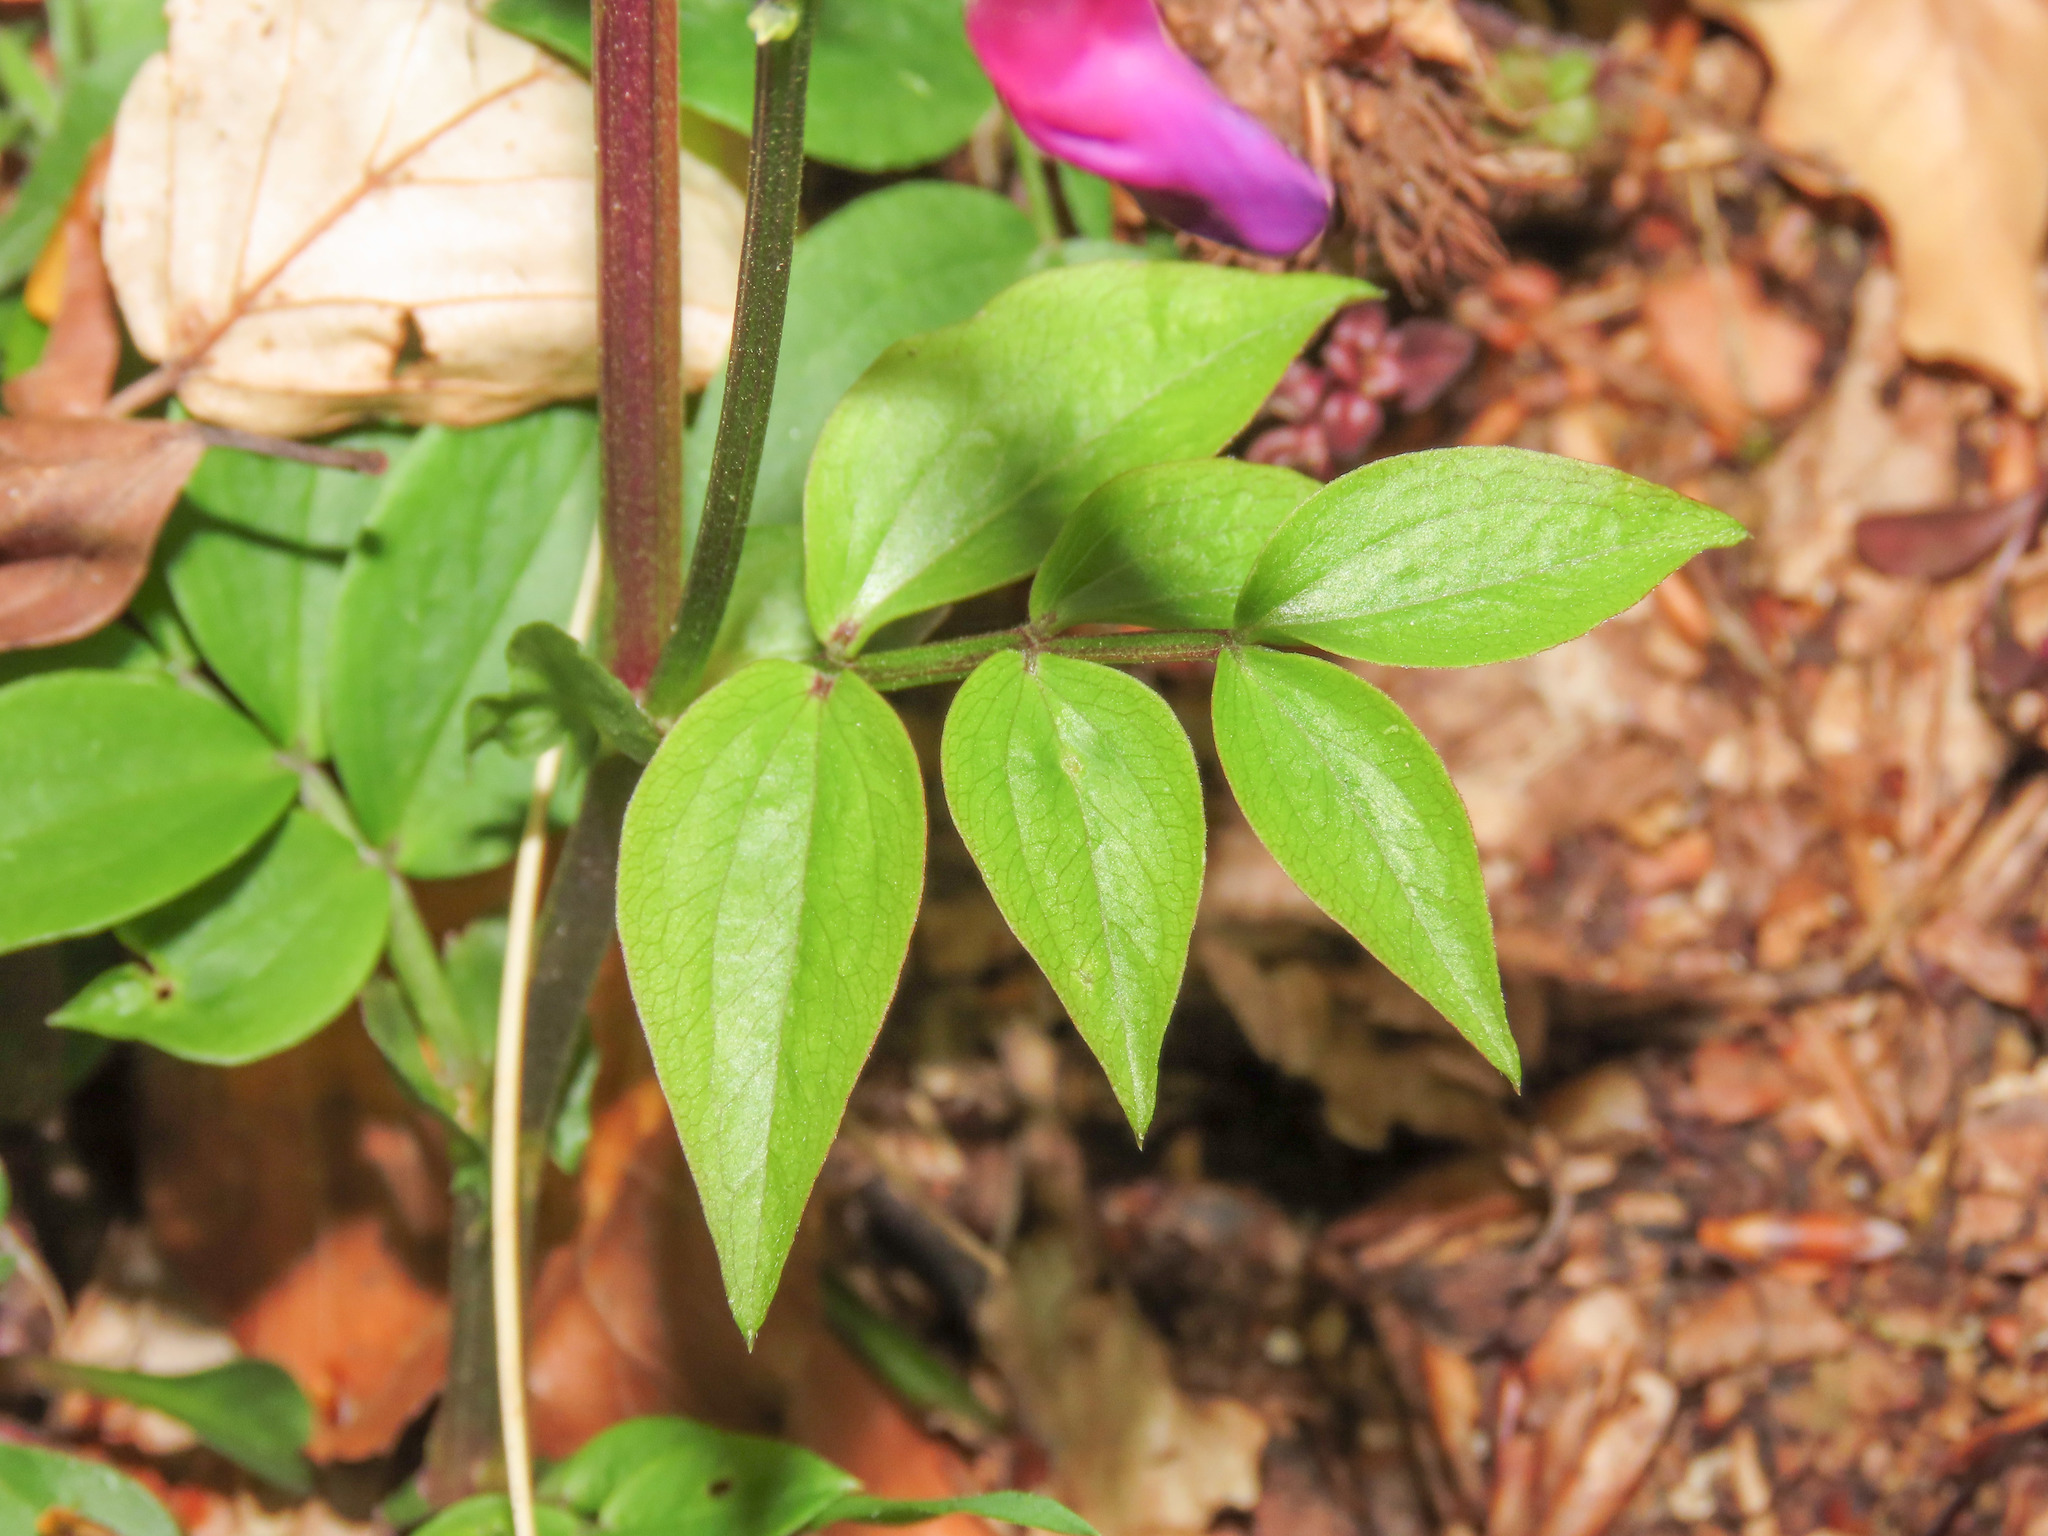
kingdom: Plantae
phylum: Tracheophyta
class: Magnoliopsida
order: Fabales
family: Fabaceae
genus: Lathyrus
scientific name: Lathyrus vernus
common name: Spring pea
